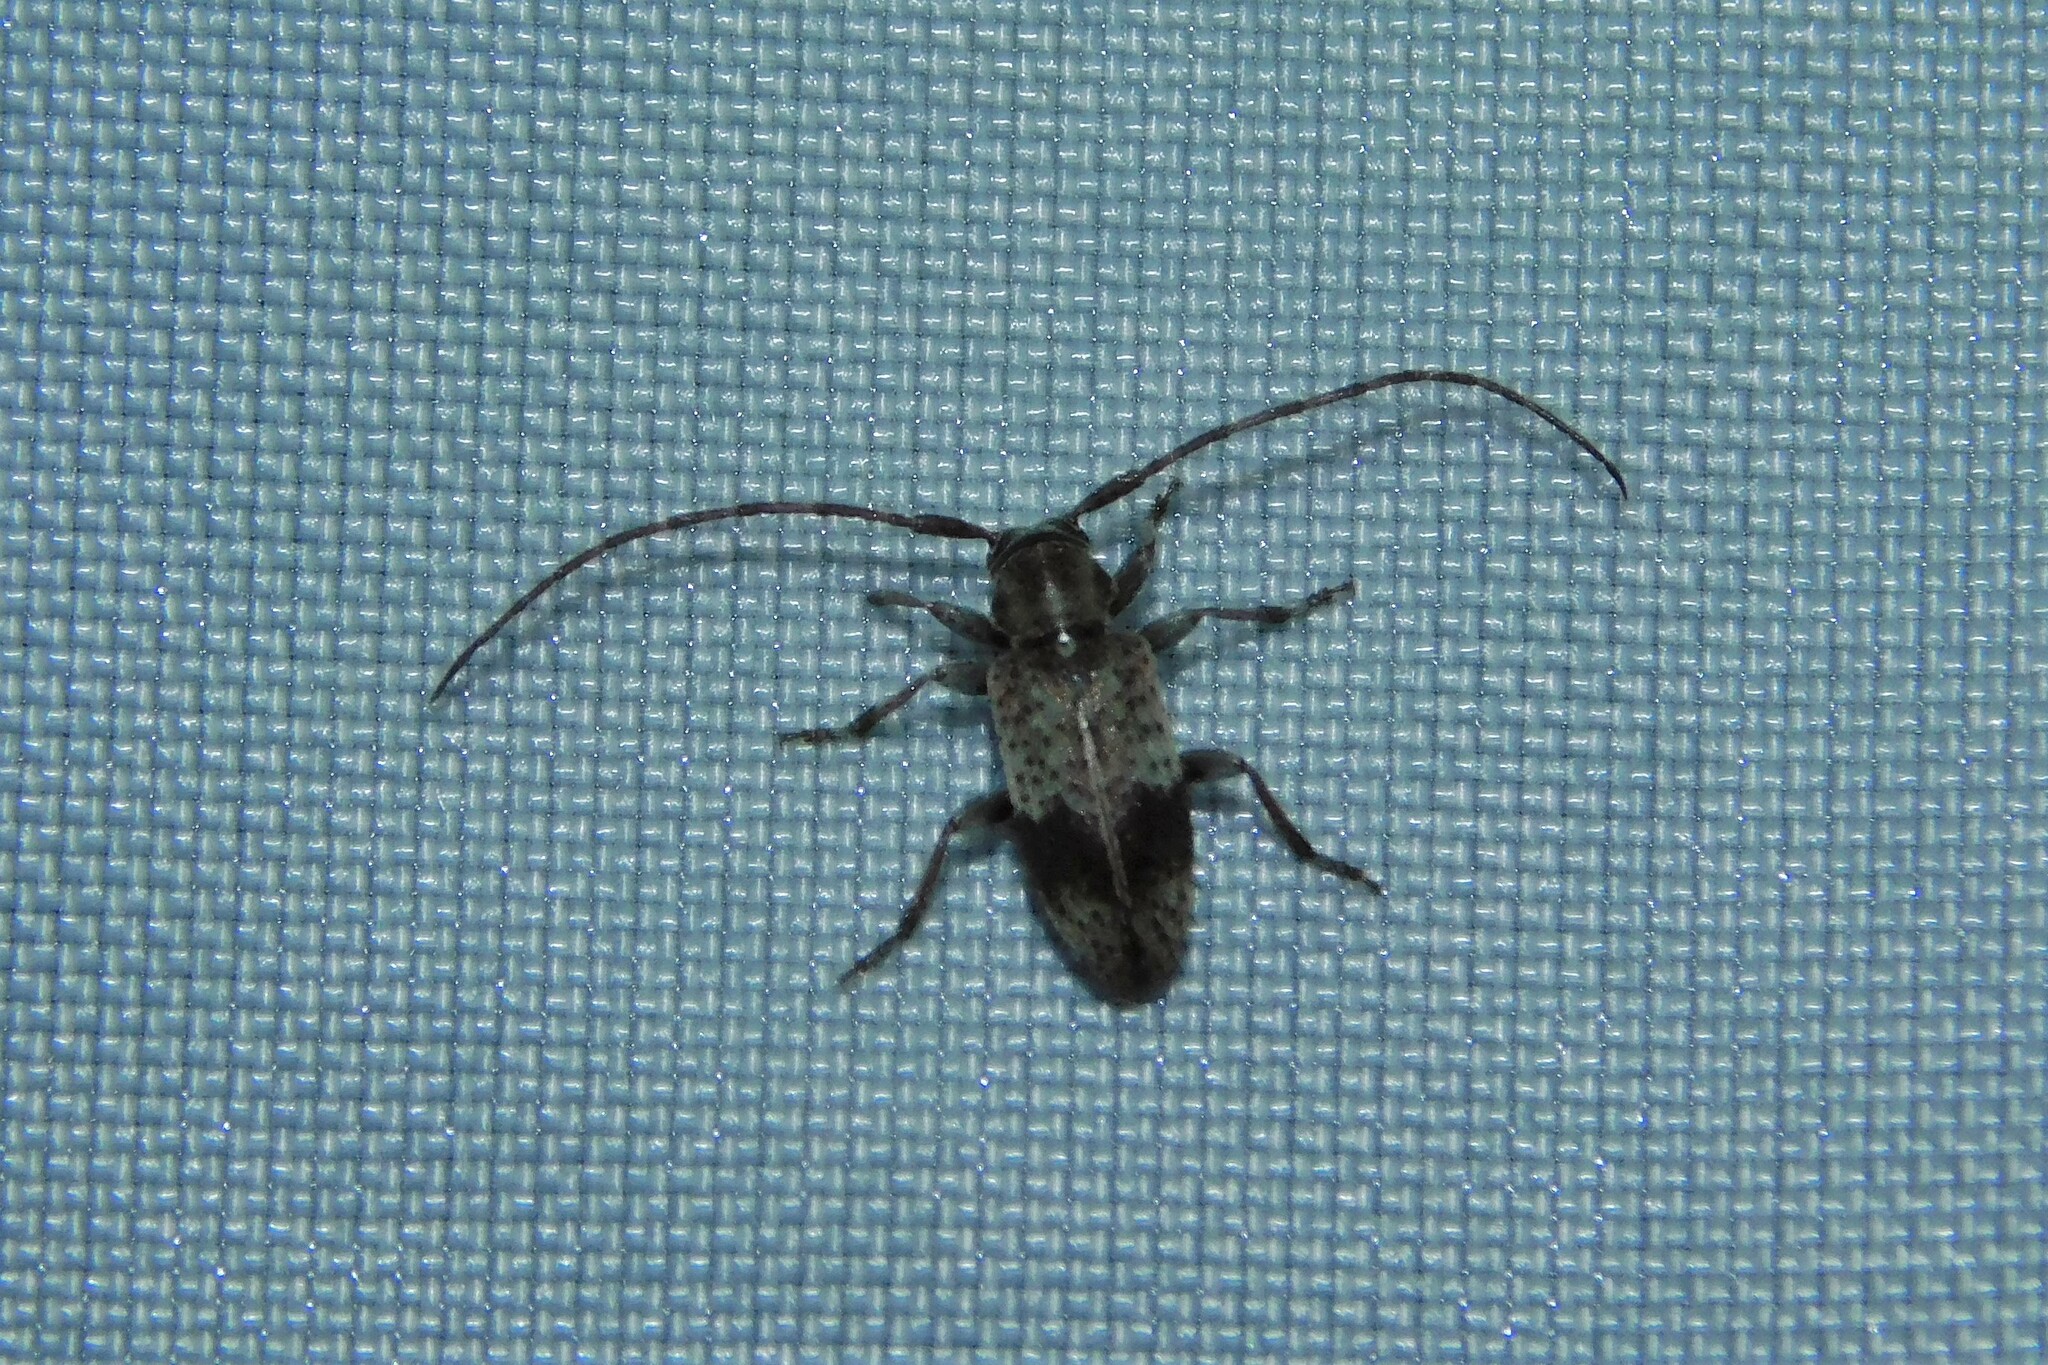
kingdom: Animalia
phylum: Arthropoda
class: Insecta
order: Coleoptera
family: Cerambycidae
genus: Exocentrus
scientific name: Exocentrus punctipennis
